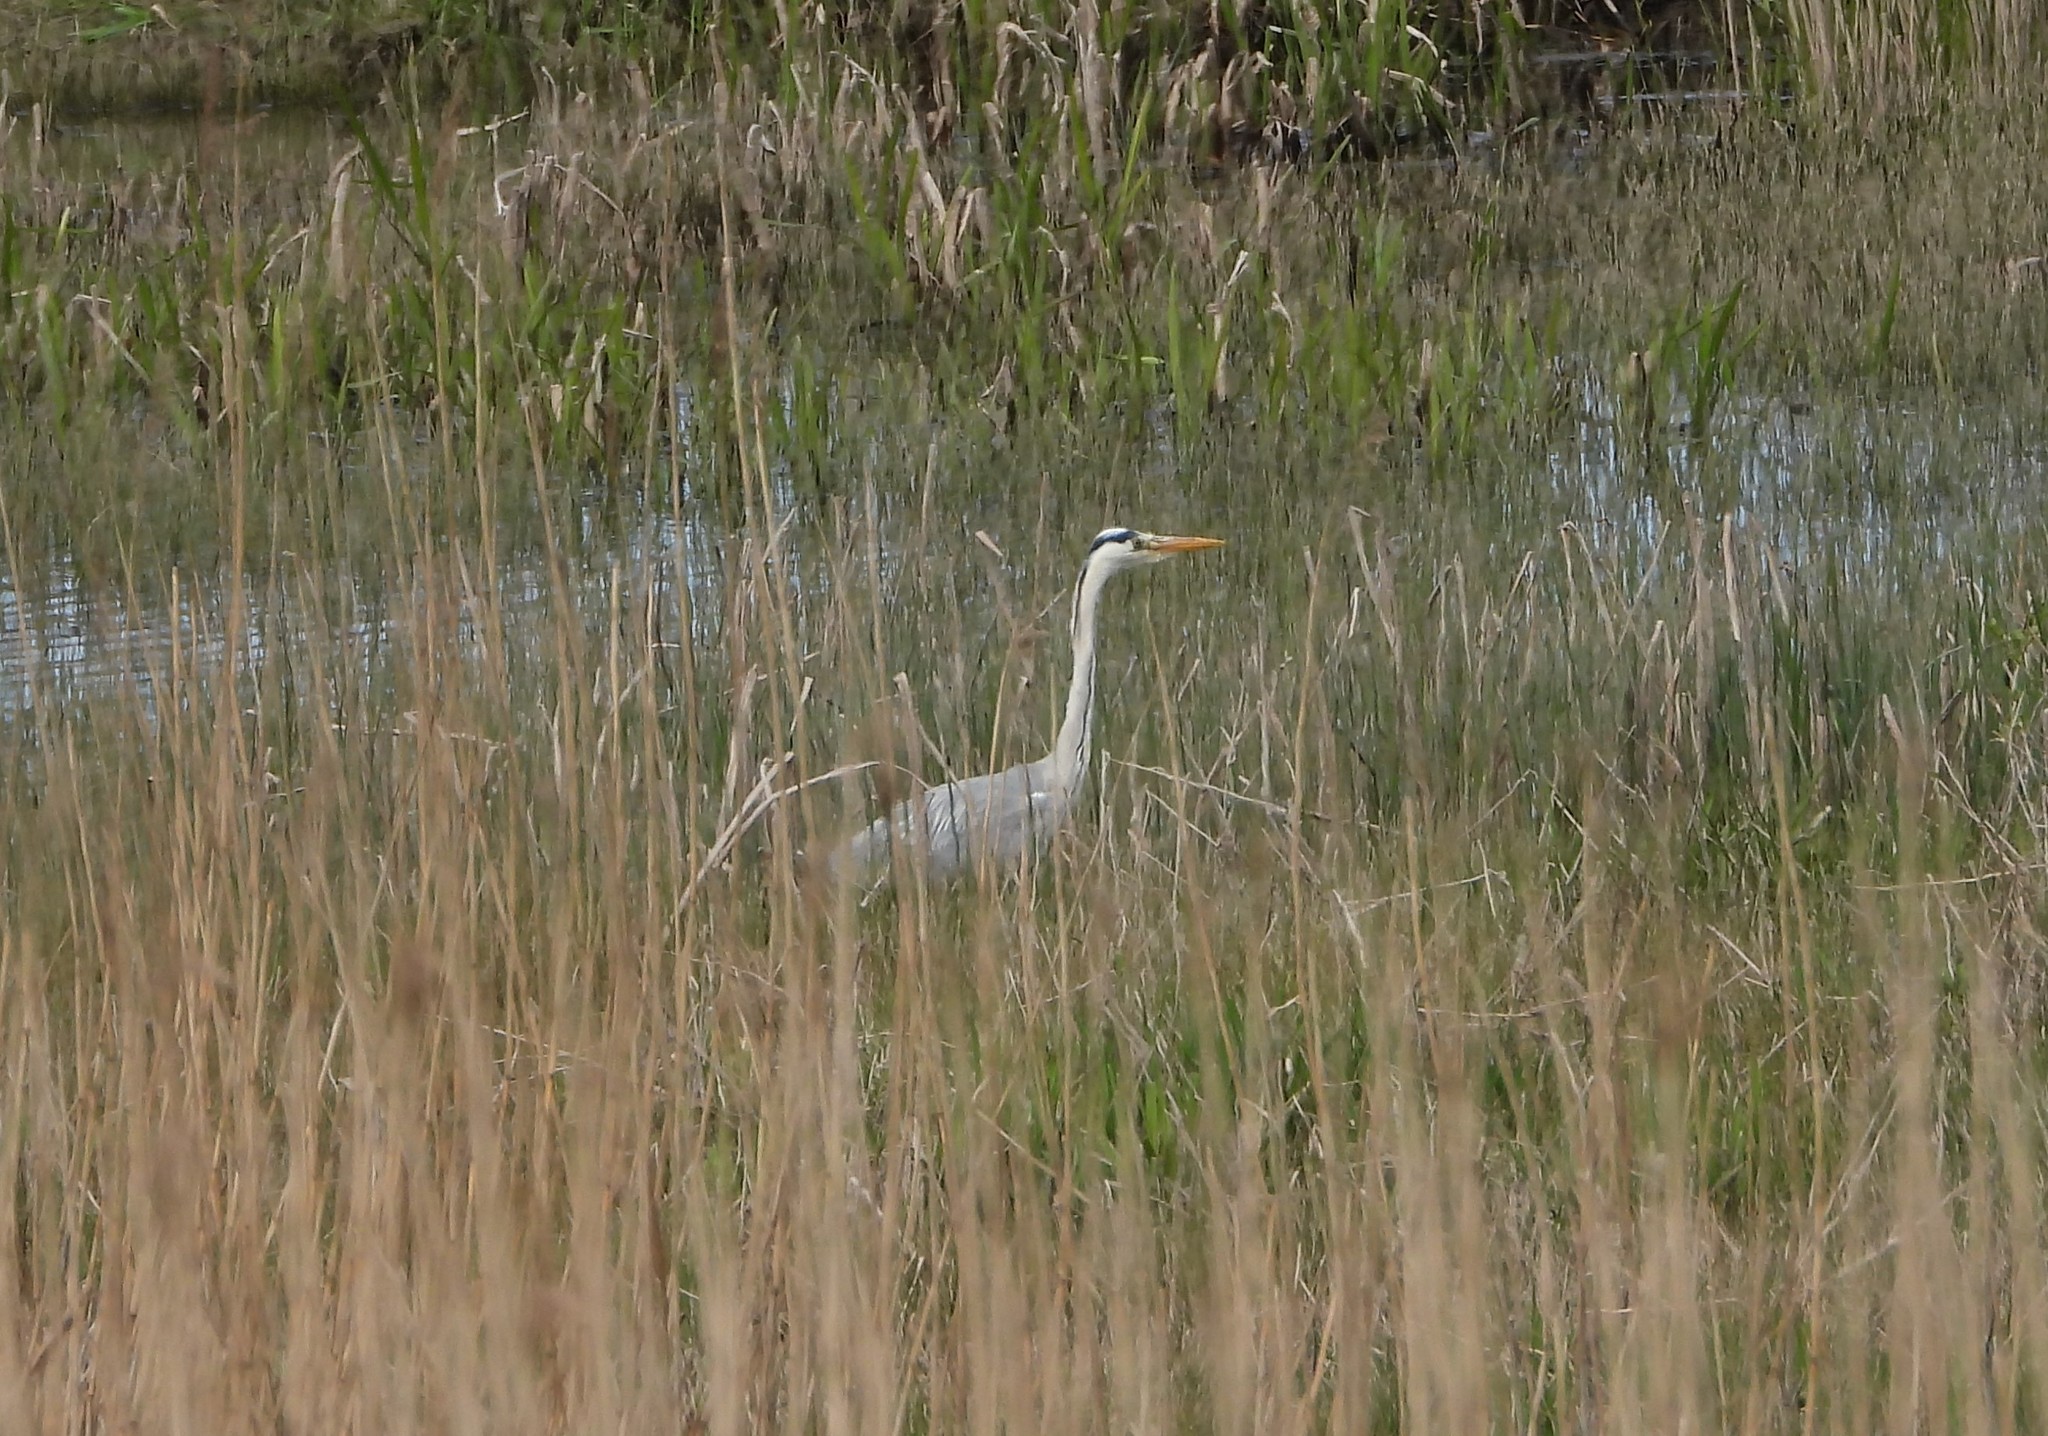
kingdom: Animalia
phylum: Chordata
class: Aves
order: Pelecaniformes
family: Ardeidae
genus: Ardea
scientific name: Ardea cinerea
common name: Grey heron
